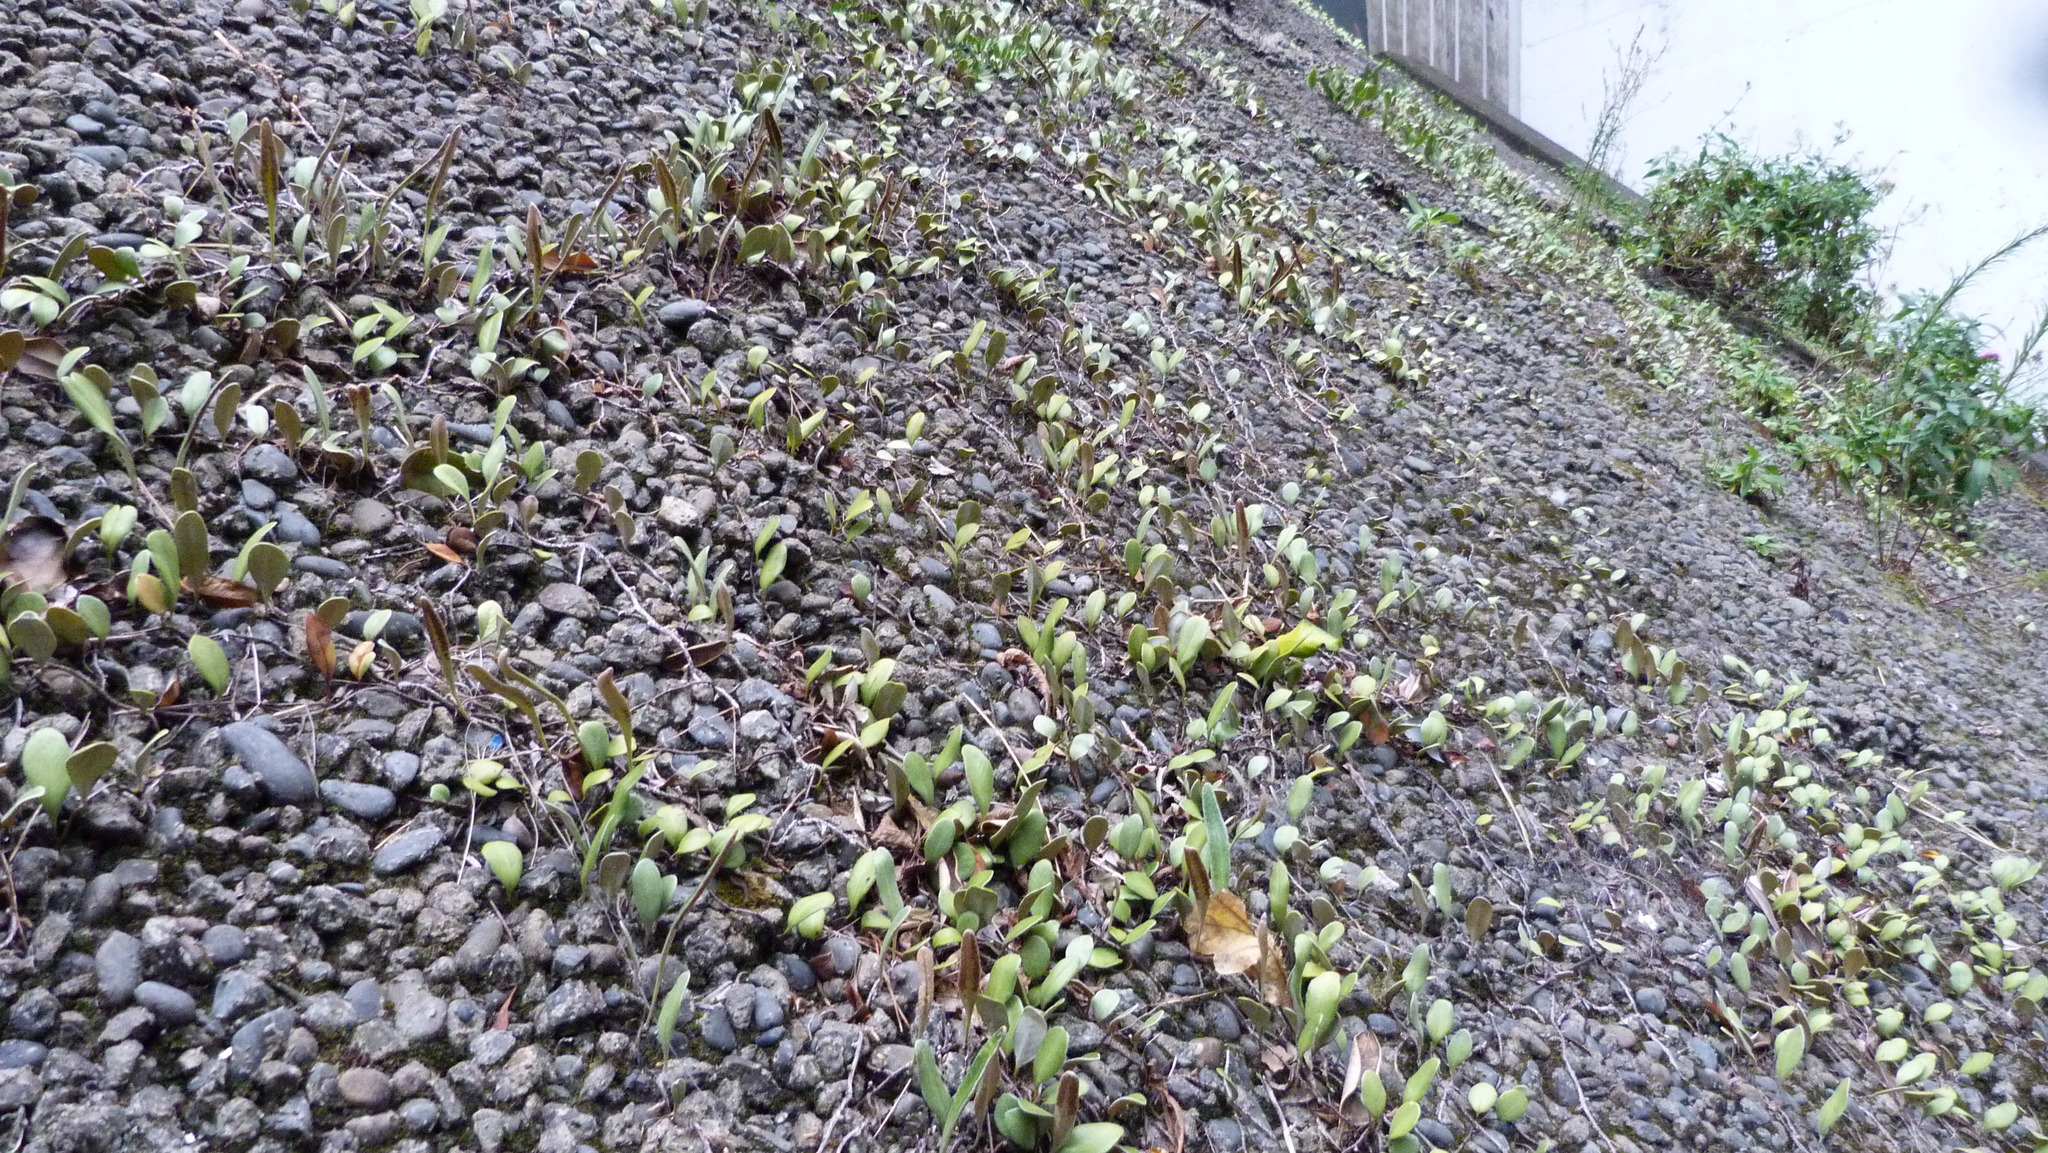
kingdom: Plantae
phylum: Tracheophyta
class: Polypodiopsida
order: Polypodiales
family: Polypodiaceae
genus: Pyrrosia
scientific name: Pyrrosia eleagnifolia
